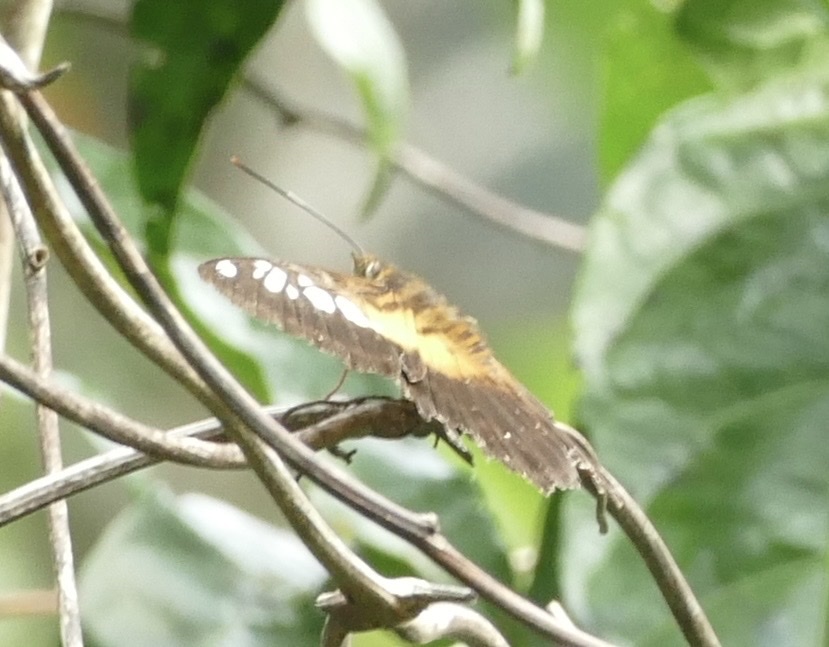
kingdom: Animalia
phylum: Arthropoda
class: Insecta
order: Lepidoptera
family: Nymphalidae
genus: Parthenos
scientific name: Parthenos tigrina
